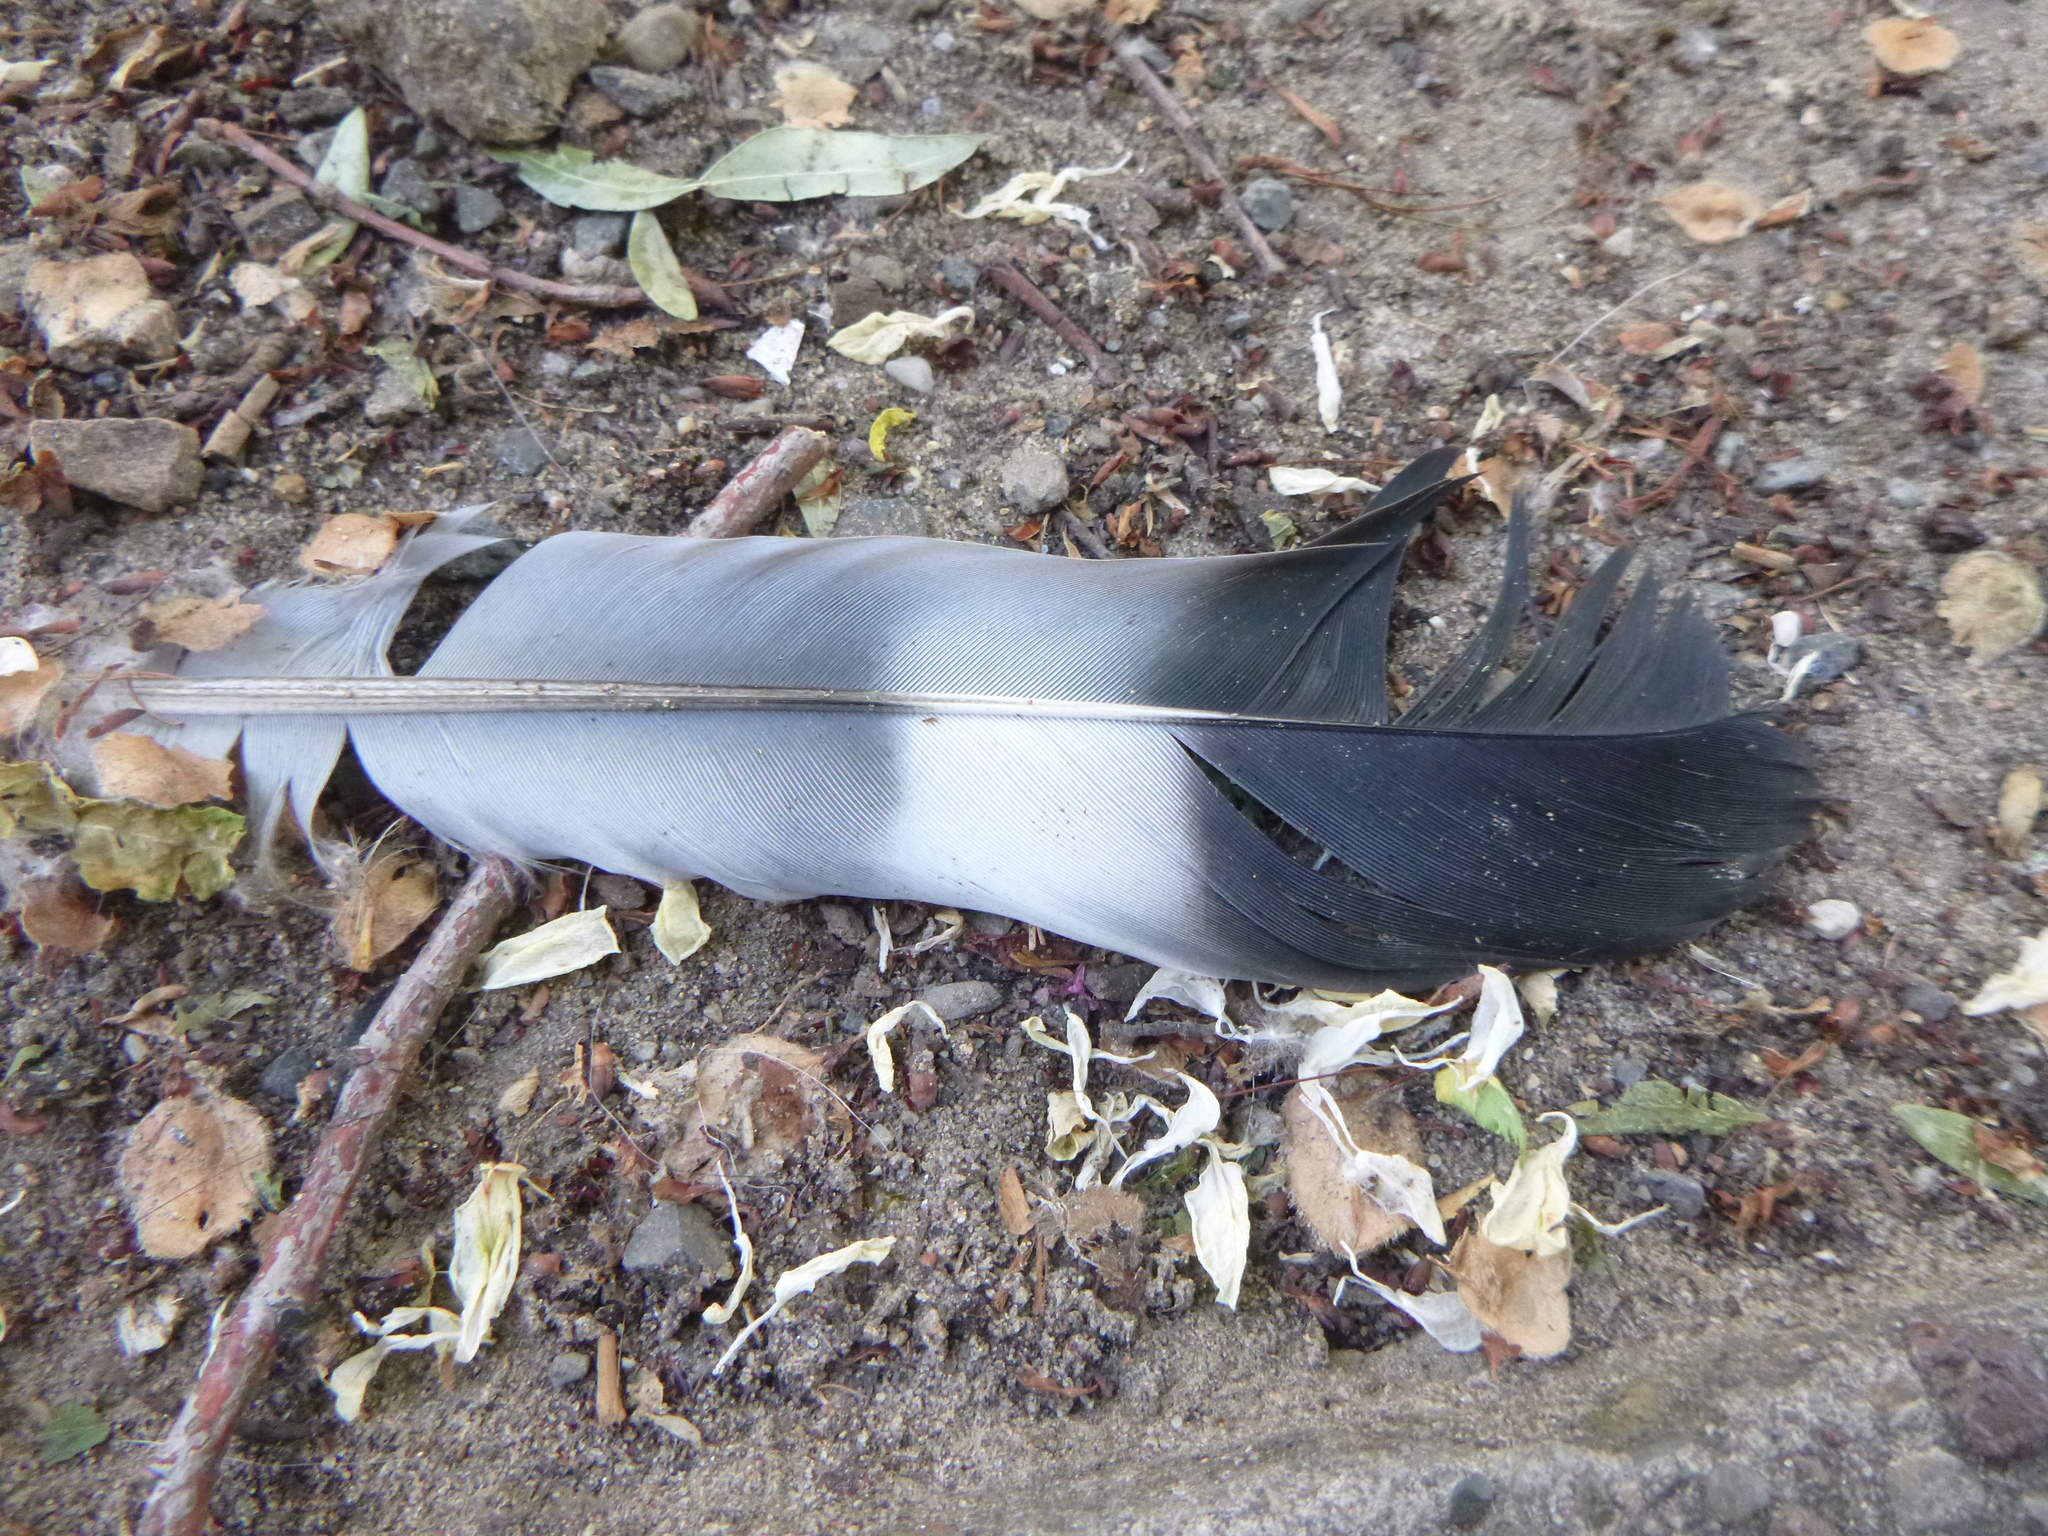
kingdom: Animalia
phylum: Chordata
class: Aves
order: Columbiformes
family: Columbidae
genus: Columba
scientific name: Columba palumbus
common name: Common wood pigeon
